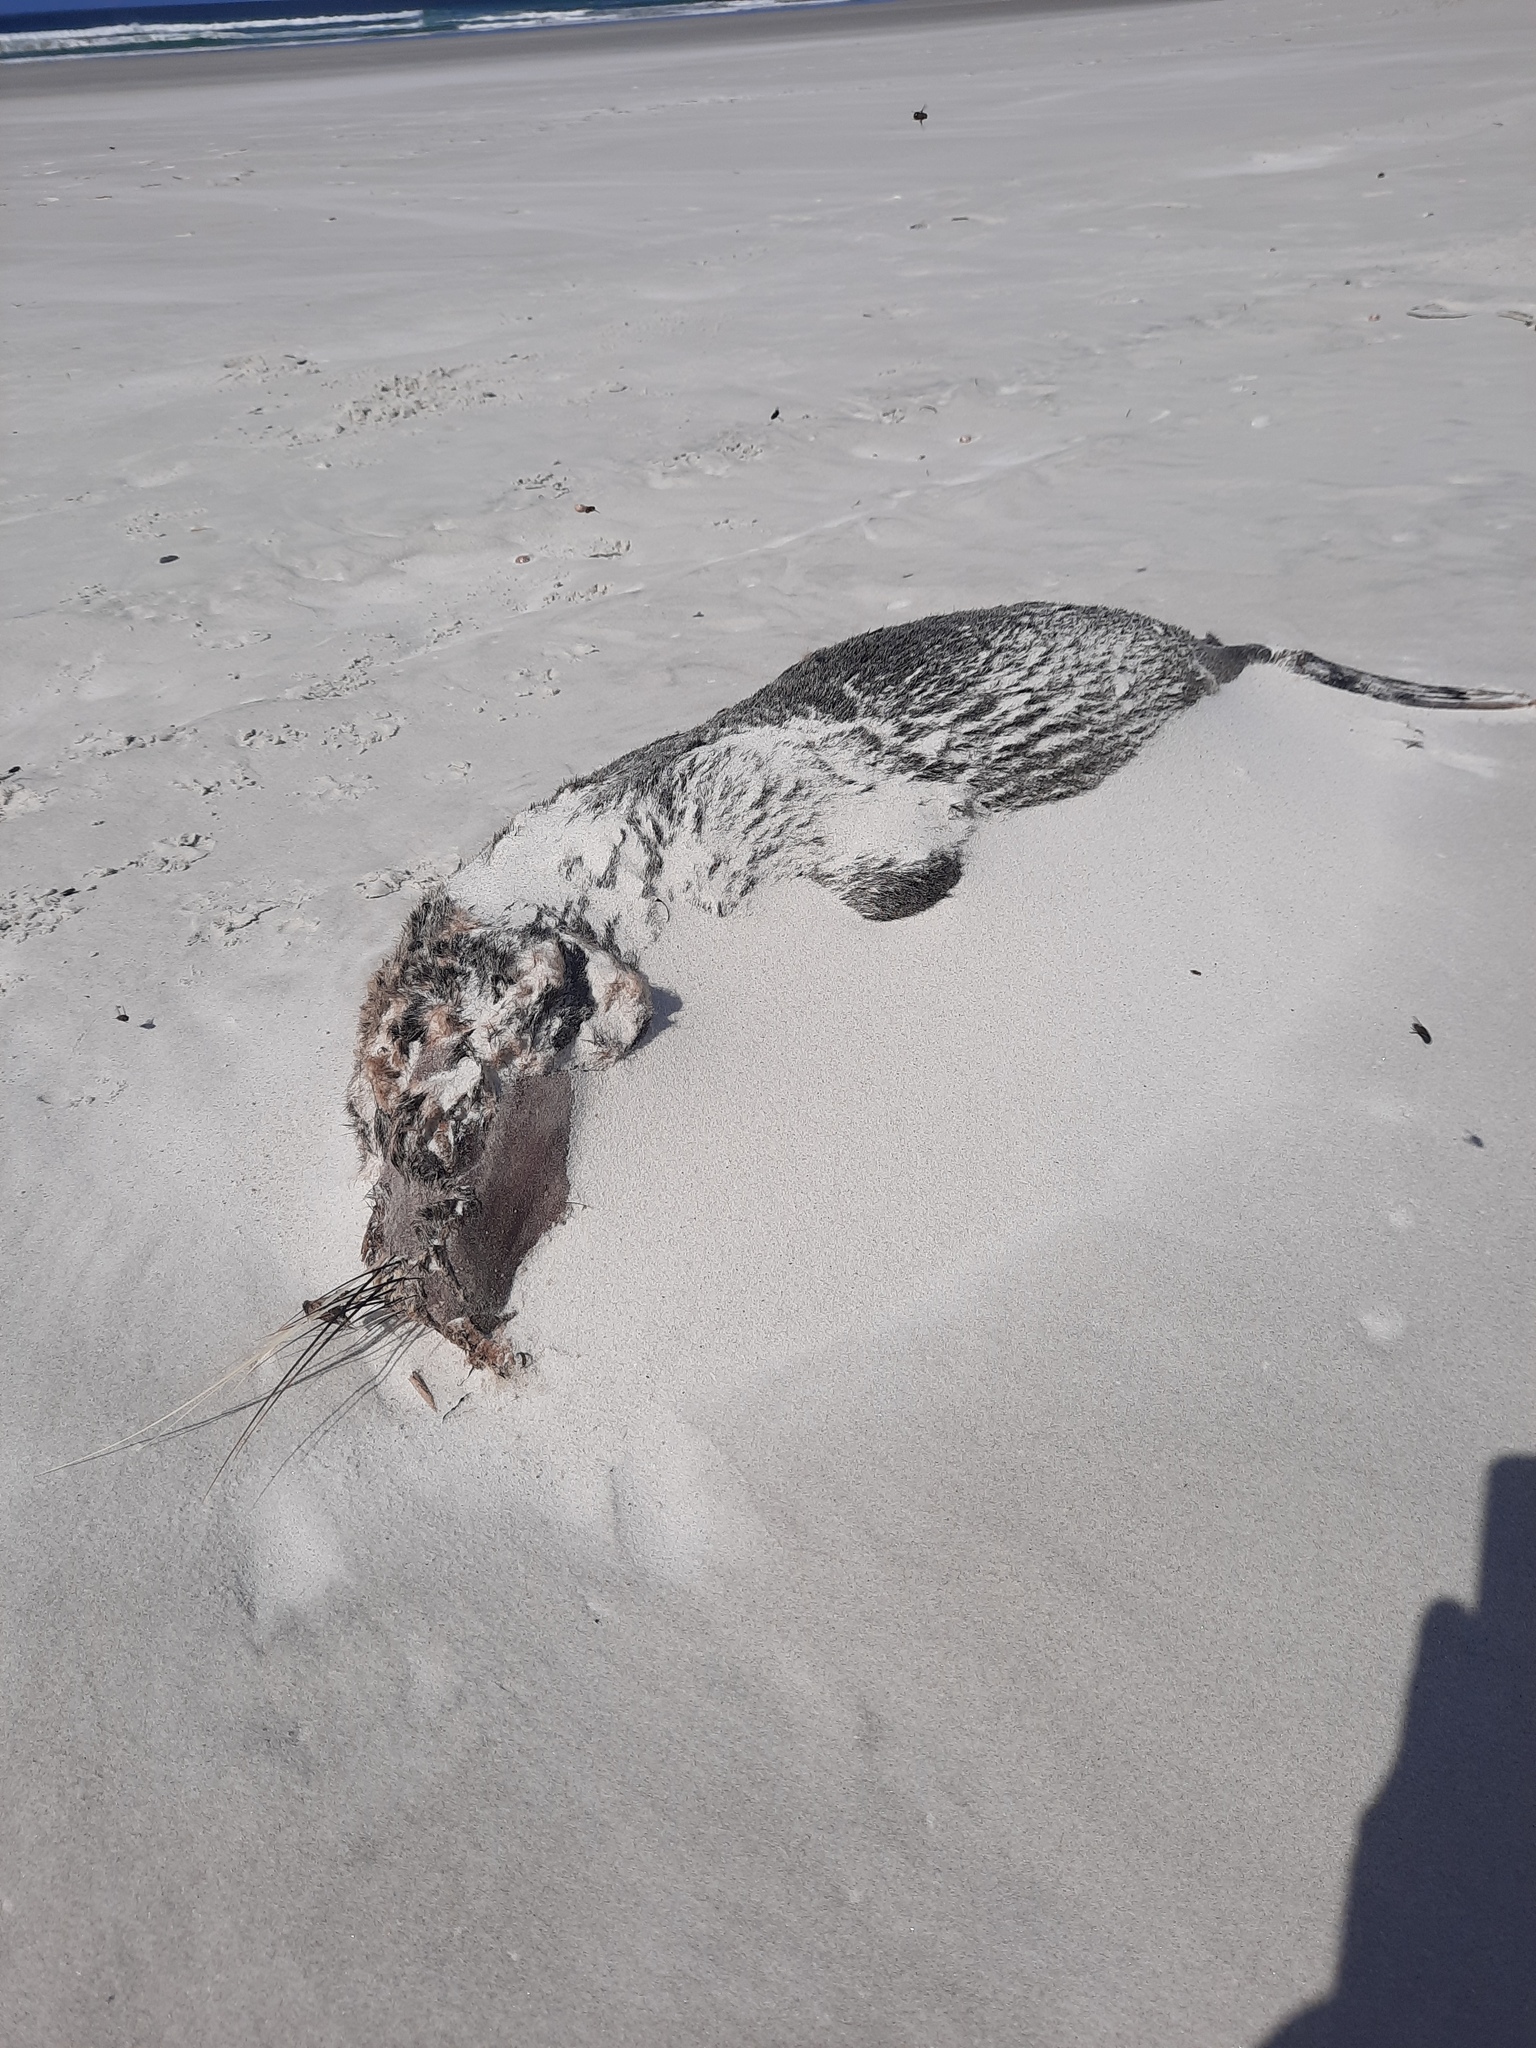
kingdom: Animalia
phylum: Chordata
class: Mammalia
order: Carnivora
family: Otariidae
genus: Arctocephalus
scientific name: Arctocephalus forsteri
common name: New zealand fur seal
